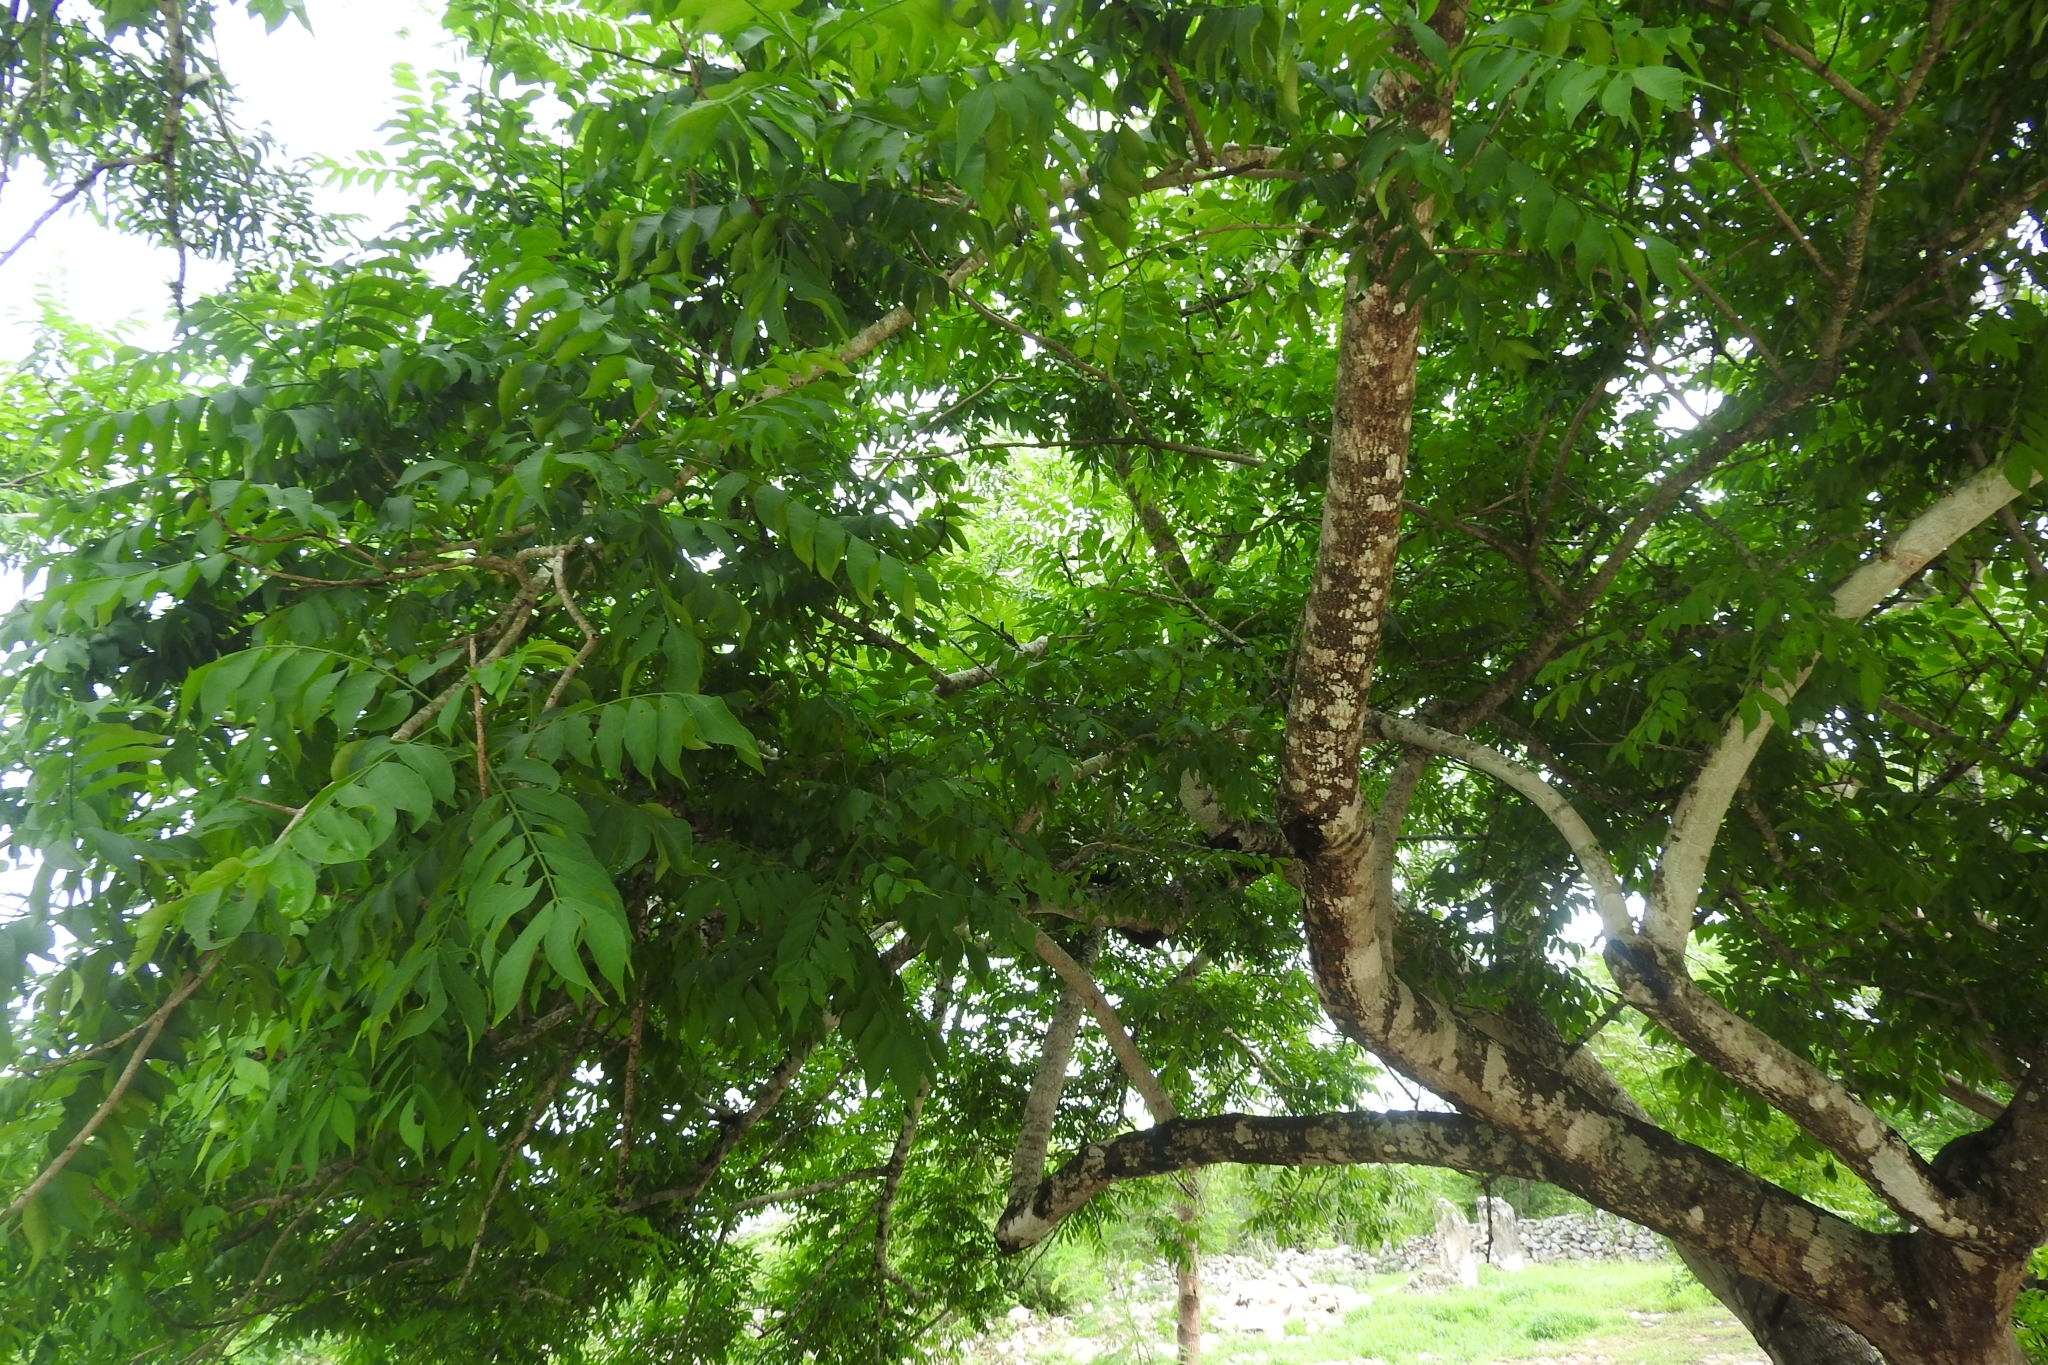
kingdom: Plantae
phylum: Tracheophyta
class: Magnoliopsida
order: Sapindales
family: Anacardiaceae
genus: Spondias
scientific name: Spondias purpurea
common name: Purple mombin
